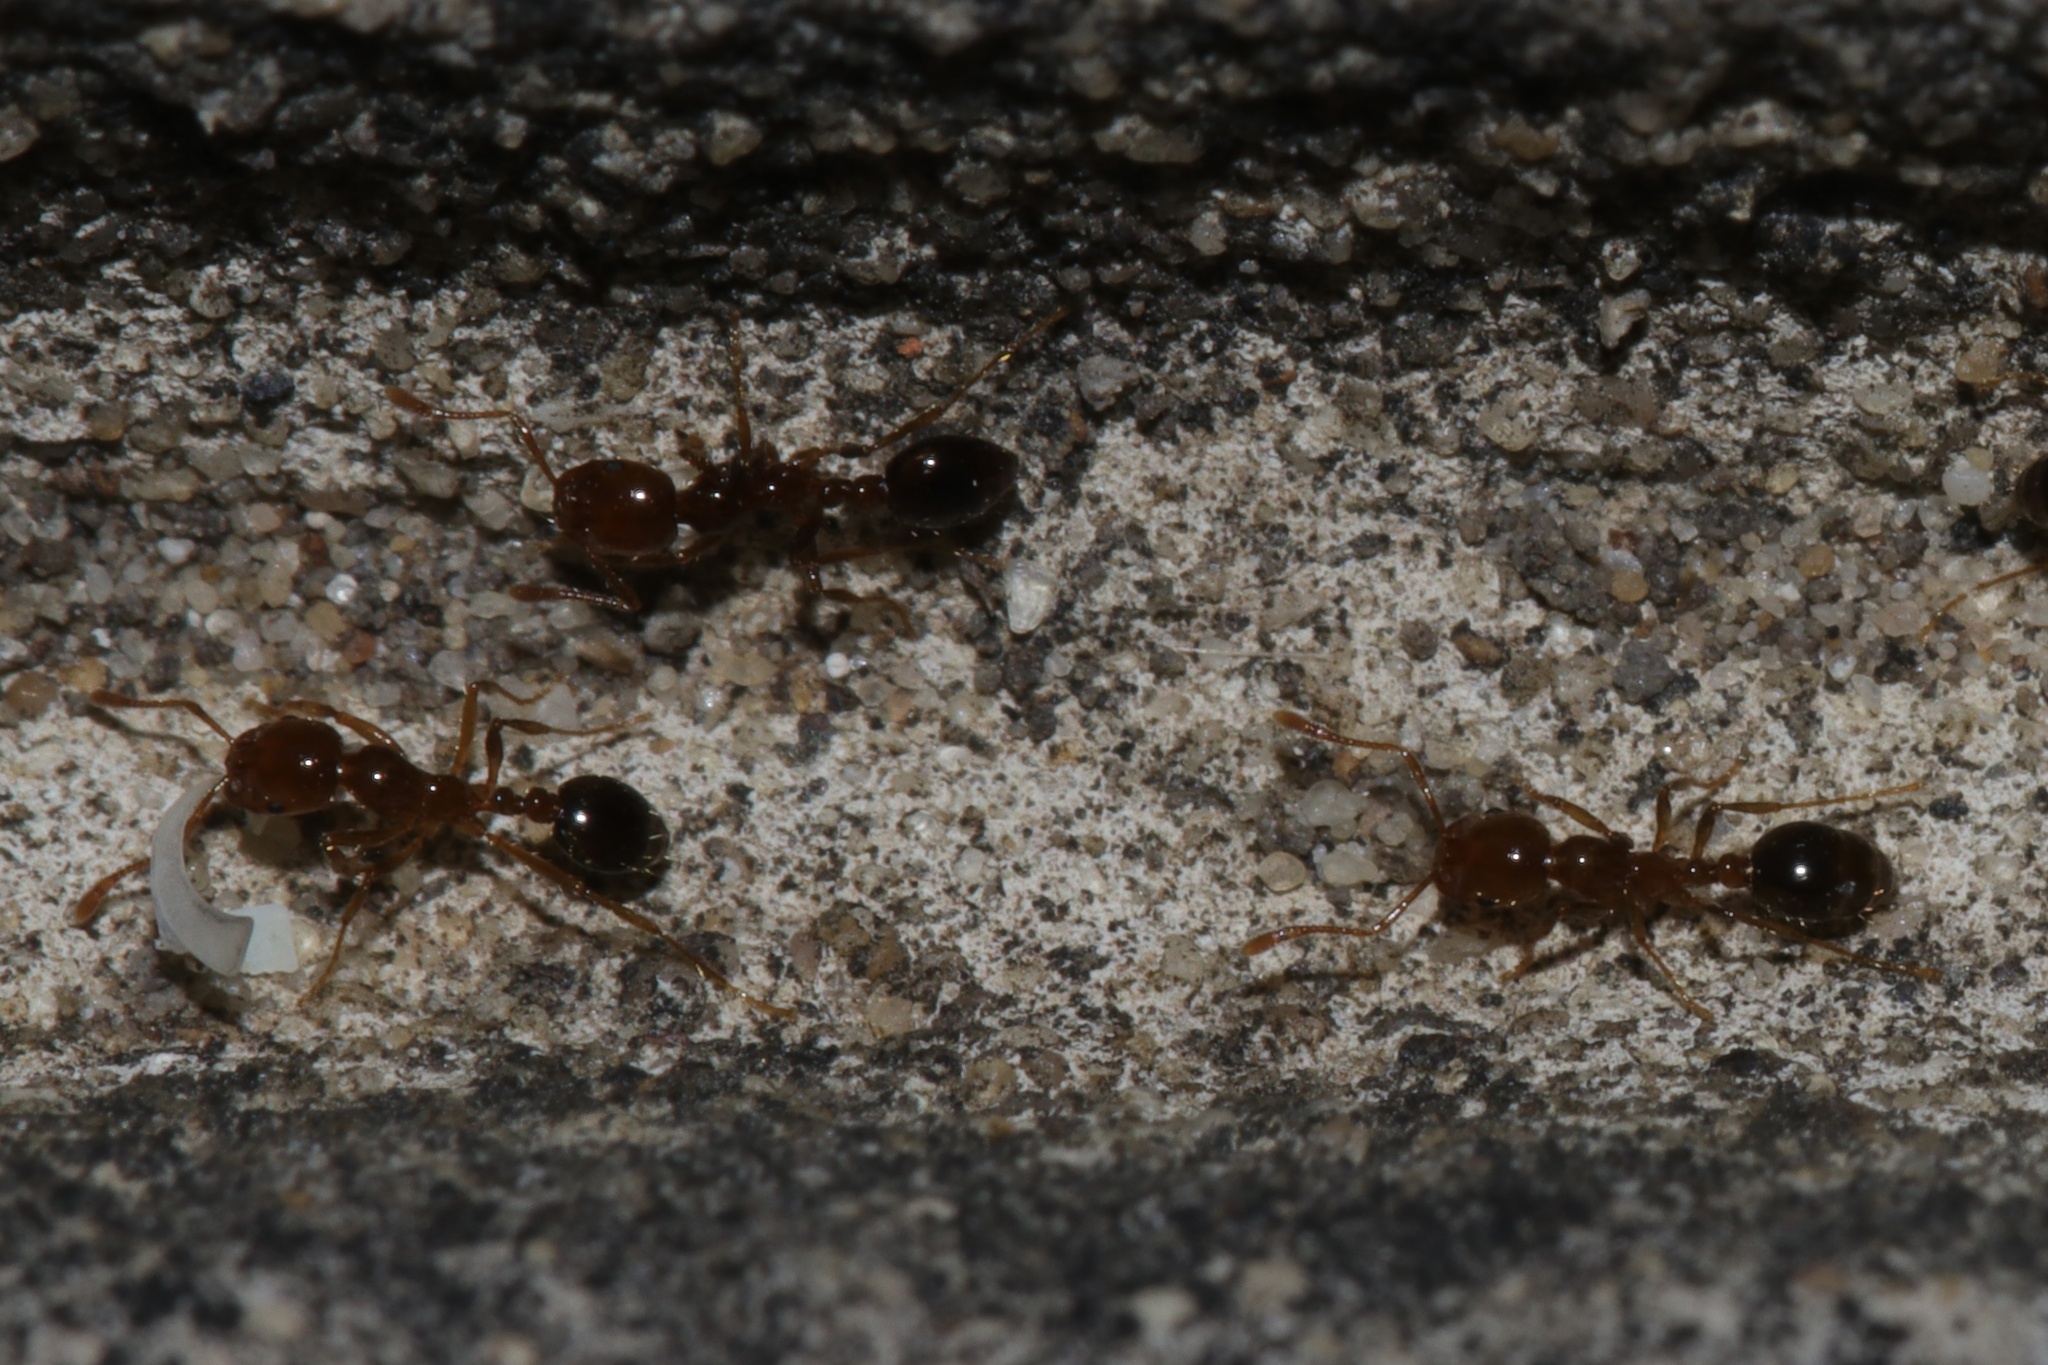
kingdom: Animalia
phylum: Arthropoda
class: Insecta
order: Hymenoptera
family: Formicidae
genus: Solenopsis
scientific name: Solenopsis invicta
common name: Red imported fire ant
